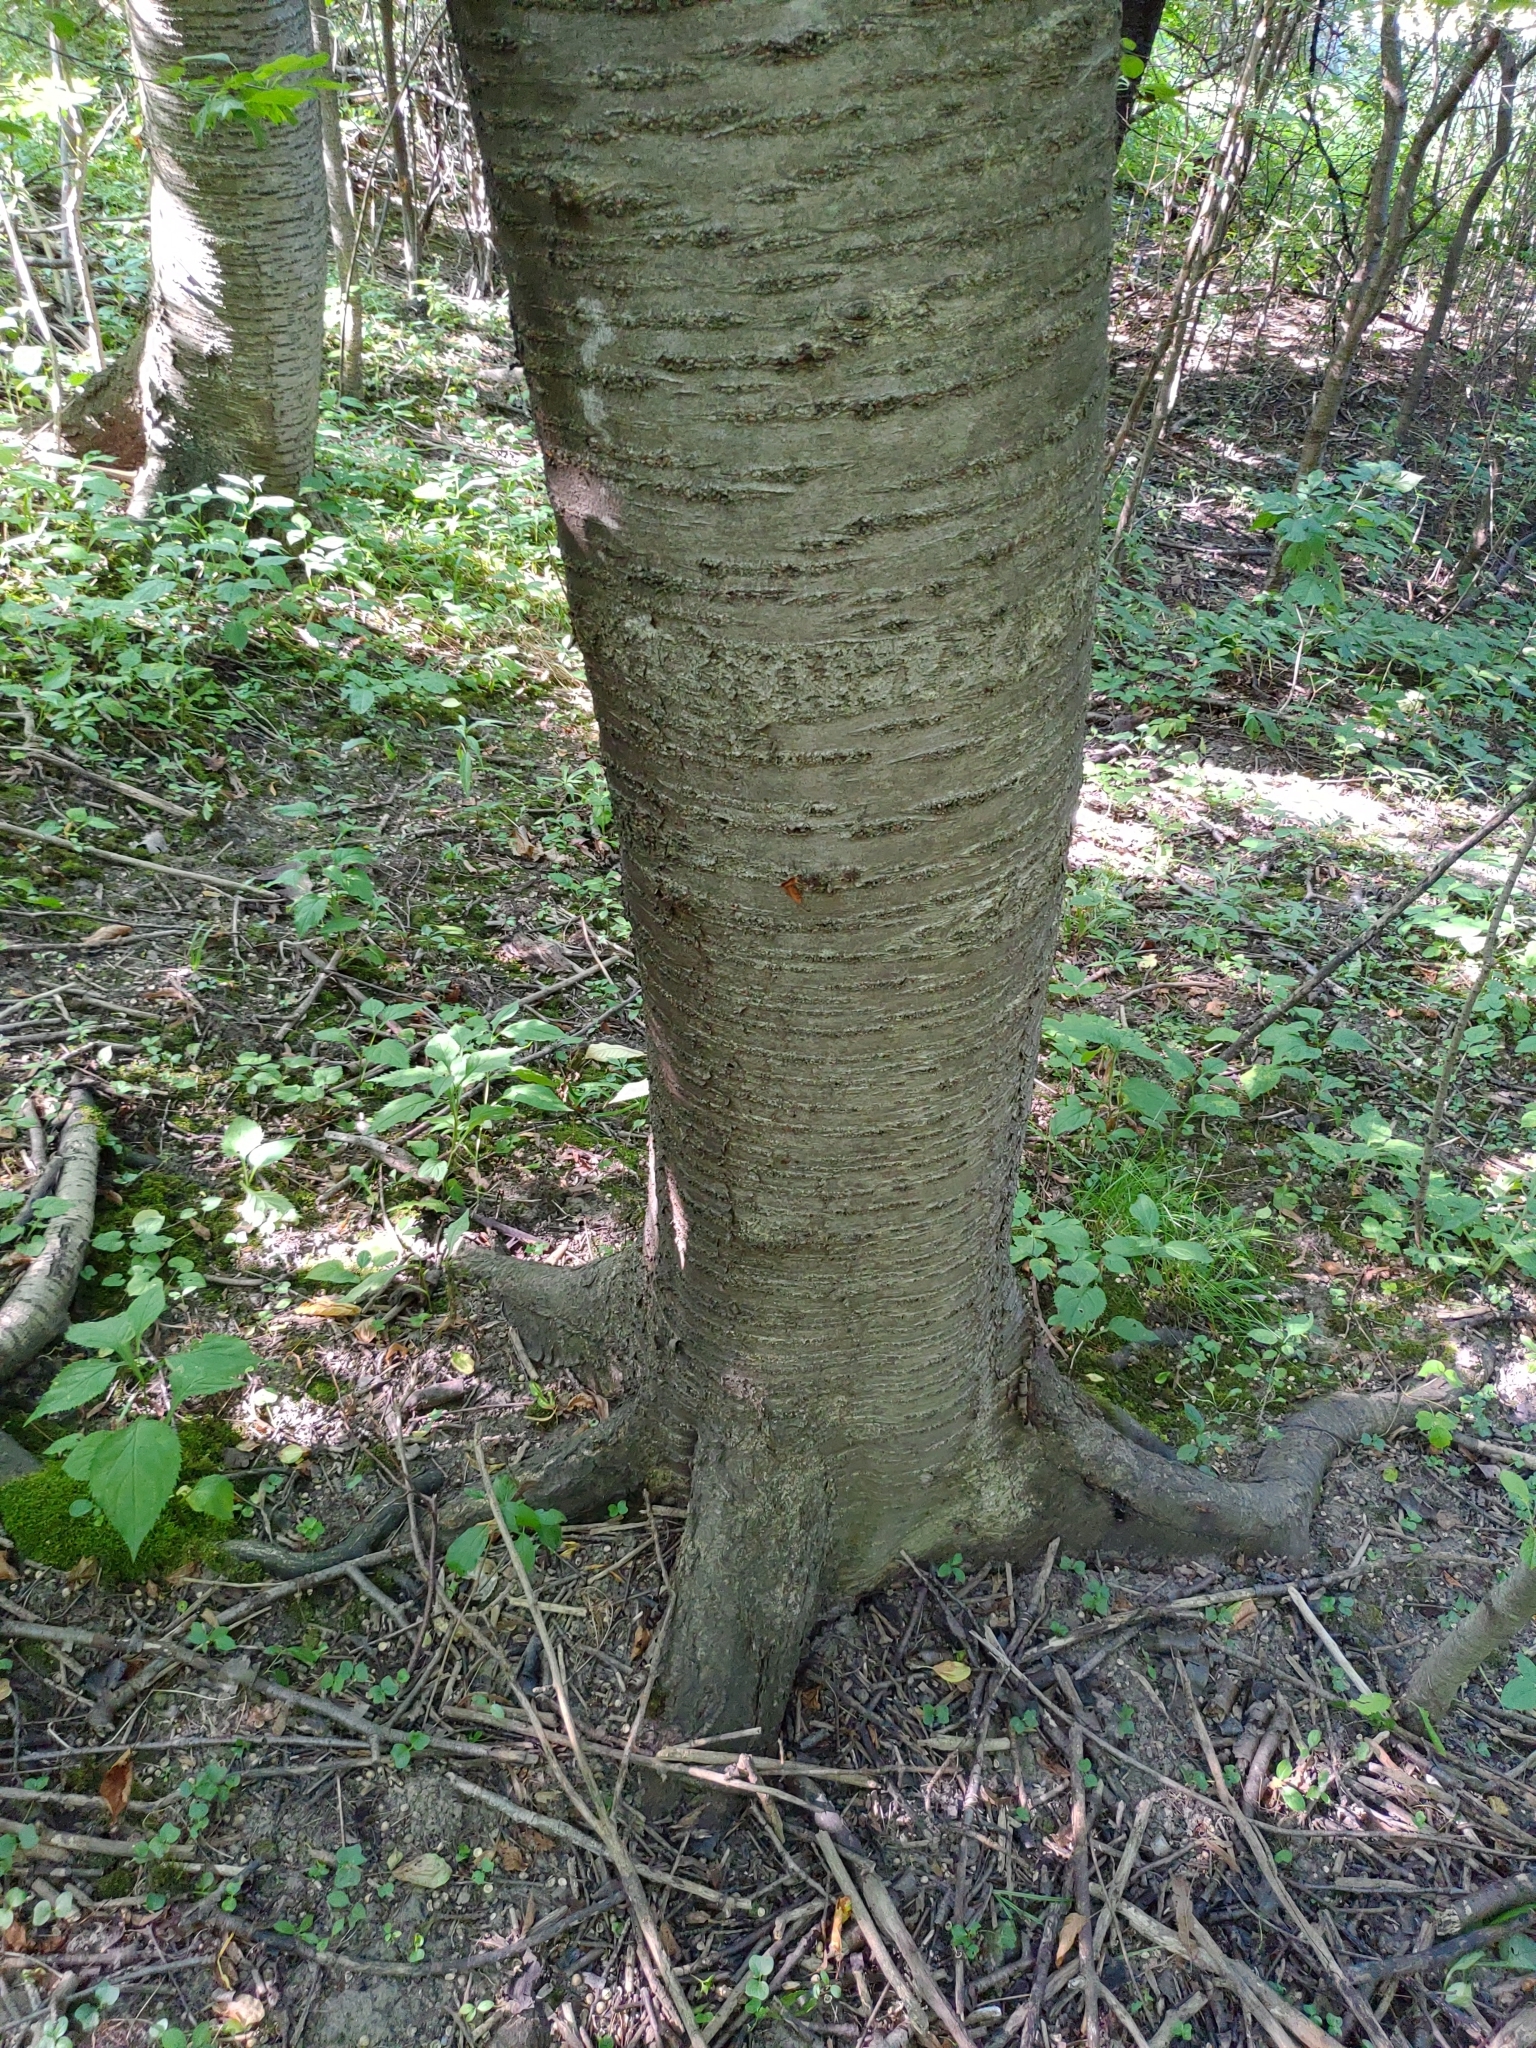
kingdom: Plantae
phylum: Tracheophyta
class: Magnoliopsida
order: Rosales
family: Rosaceae
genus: Prunus
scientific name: Prunus avium
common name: Sweet cherry
